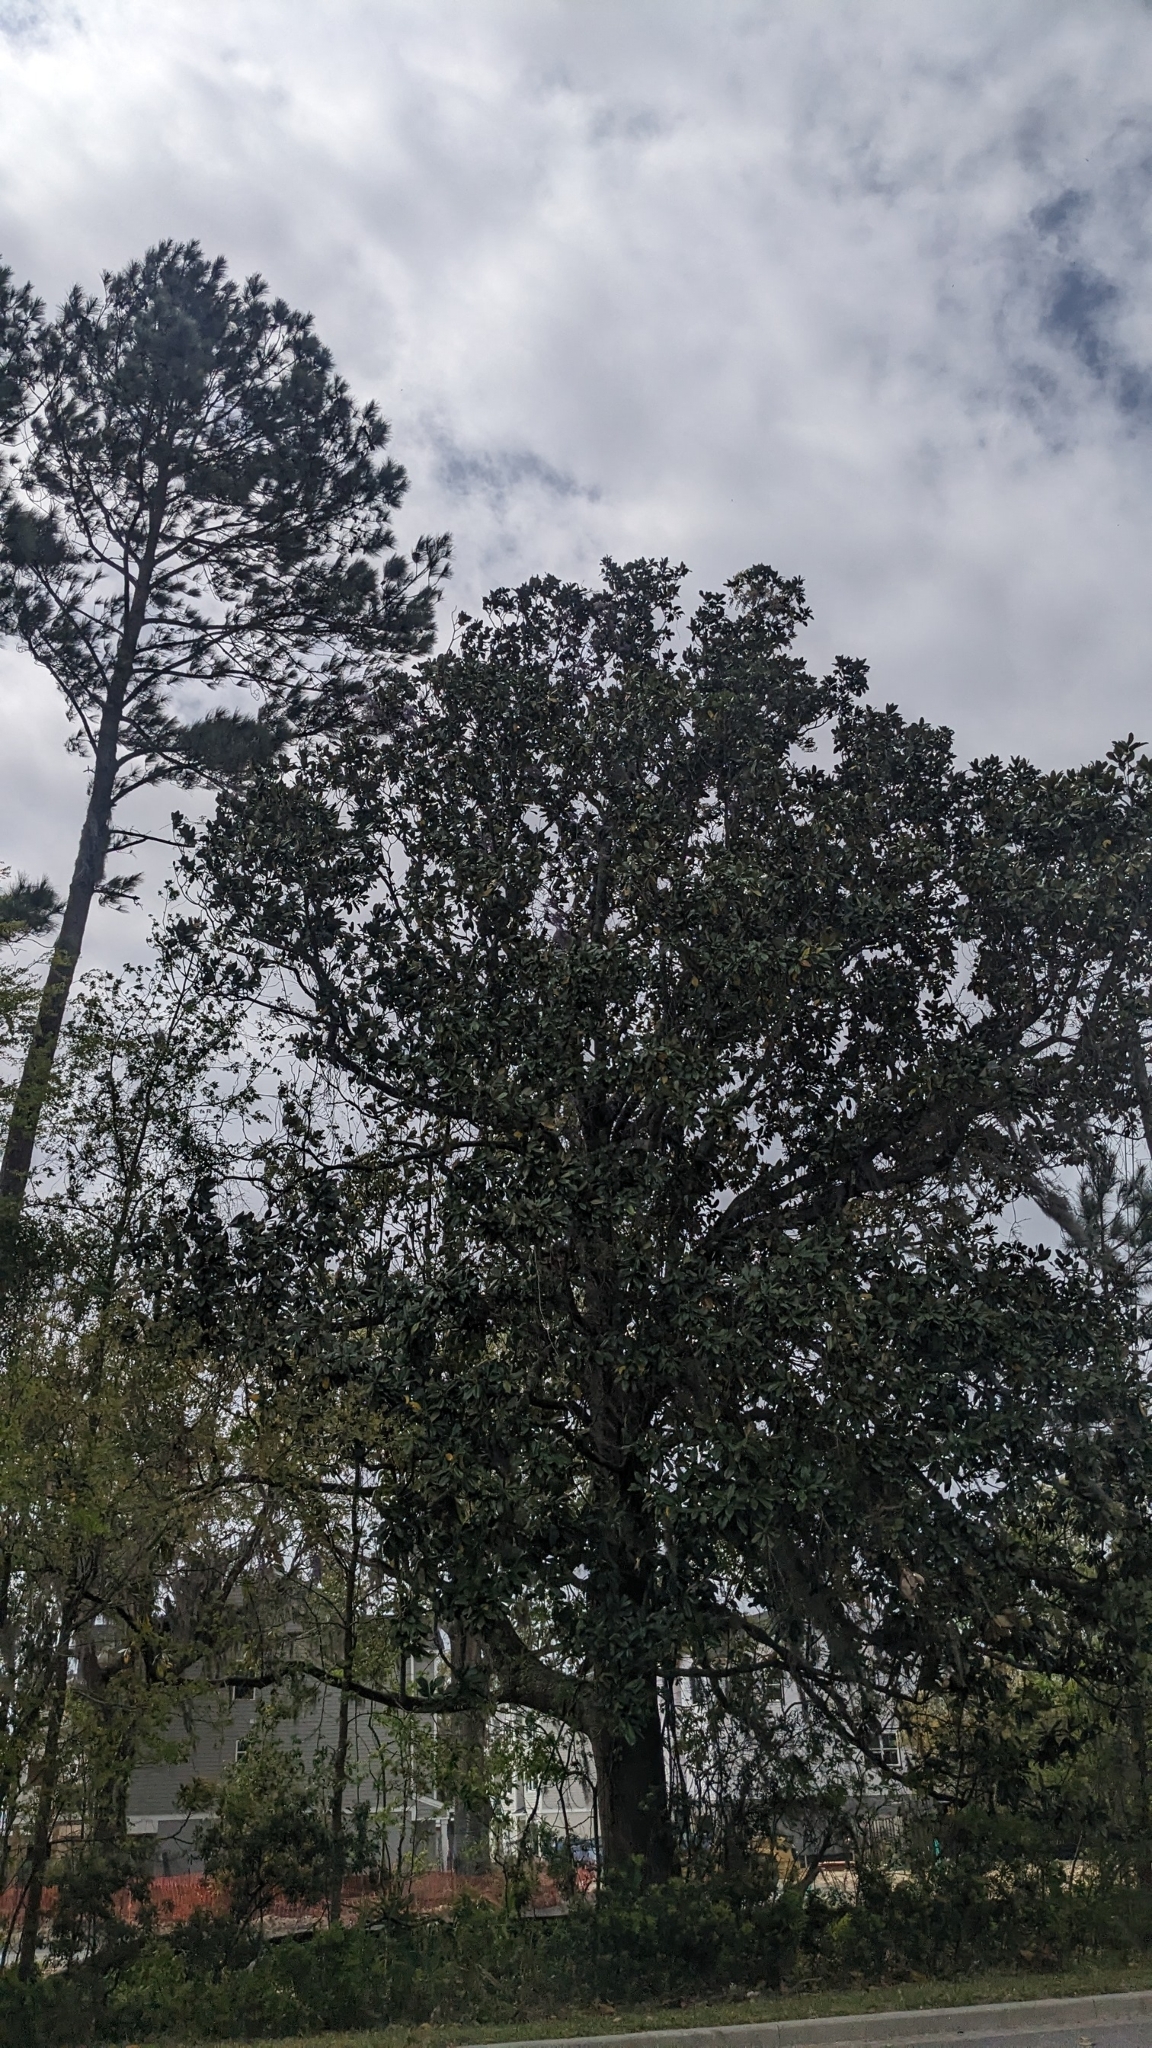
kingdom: Plantae
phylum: Tracheophyta
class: Magnoliopsida
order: Magnoliales
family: Magnoliaceae
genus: Magnolia
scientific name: Magnolia grandiflora
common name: Southern magnolia
